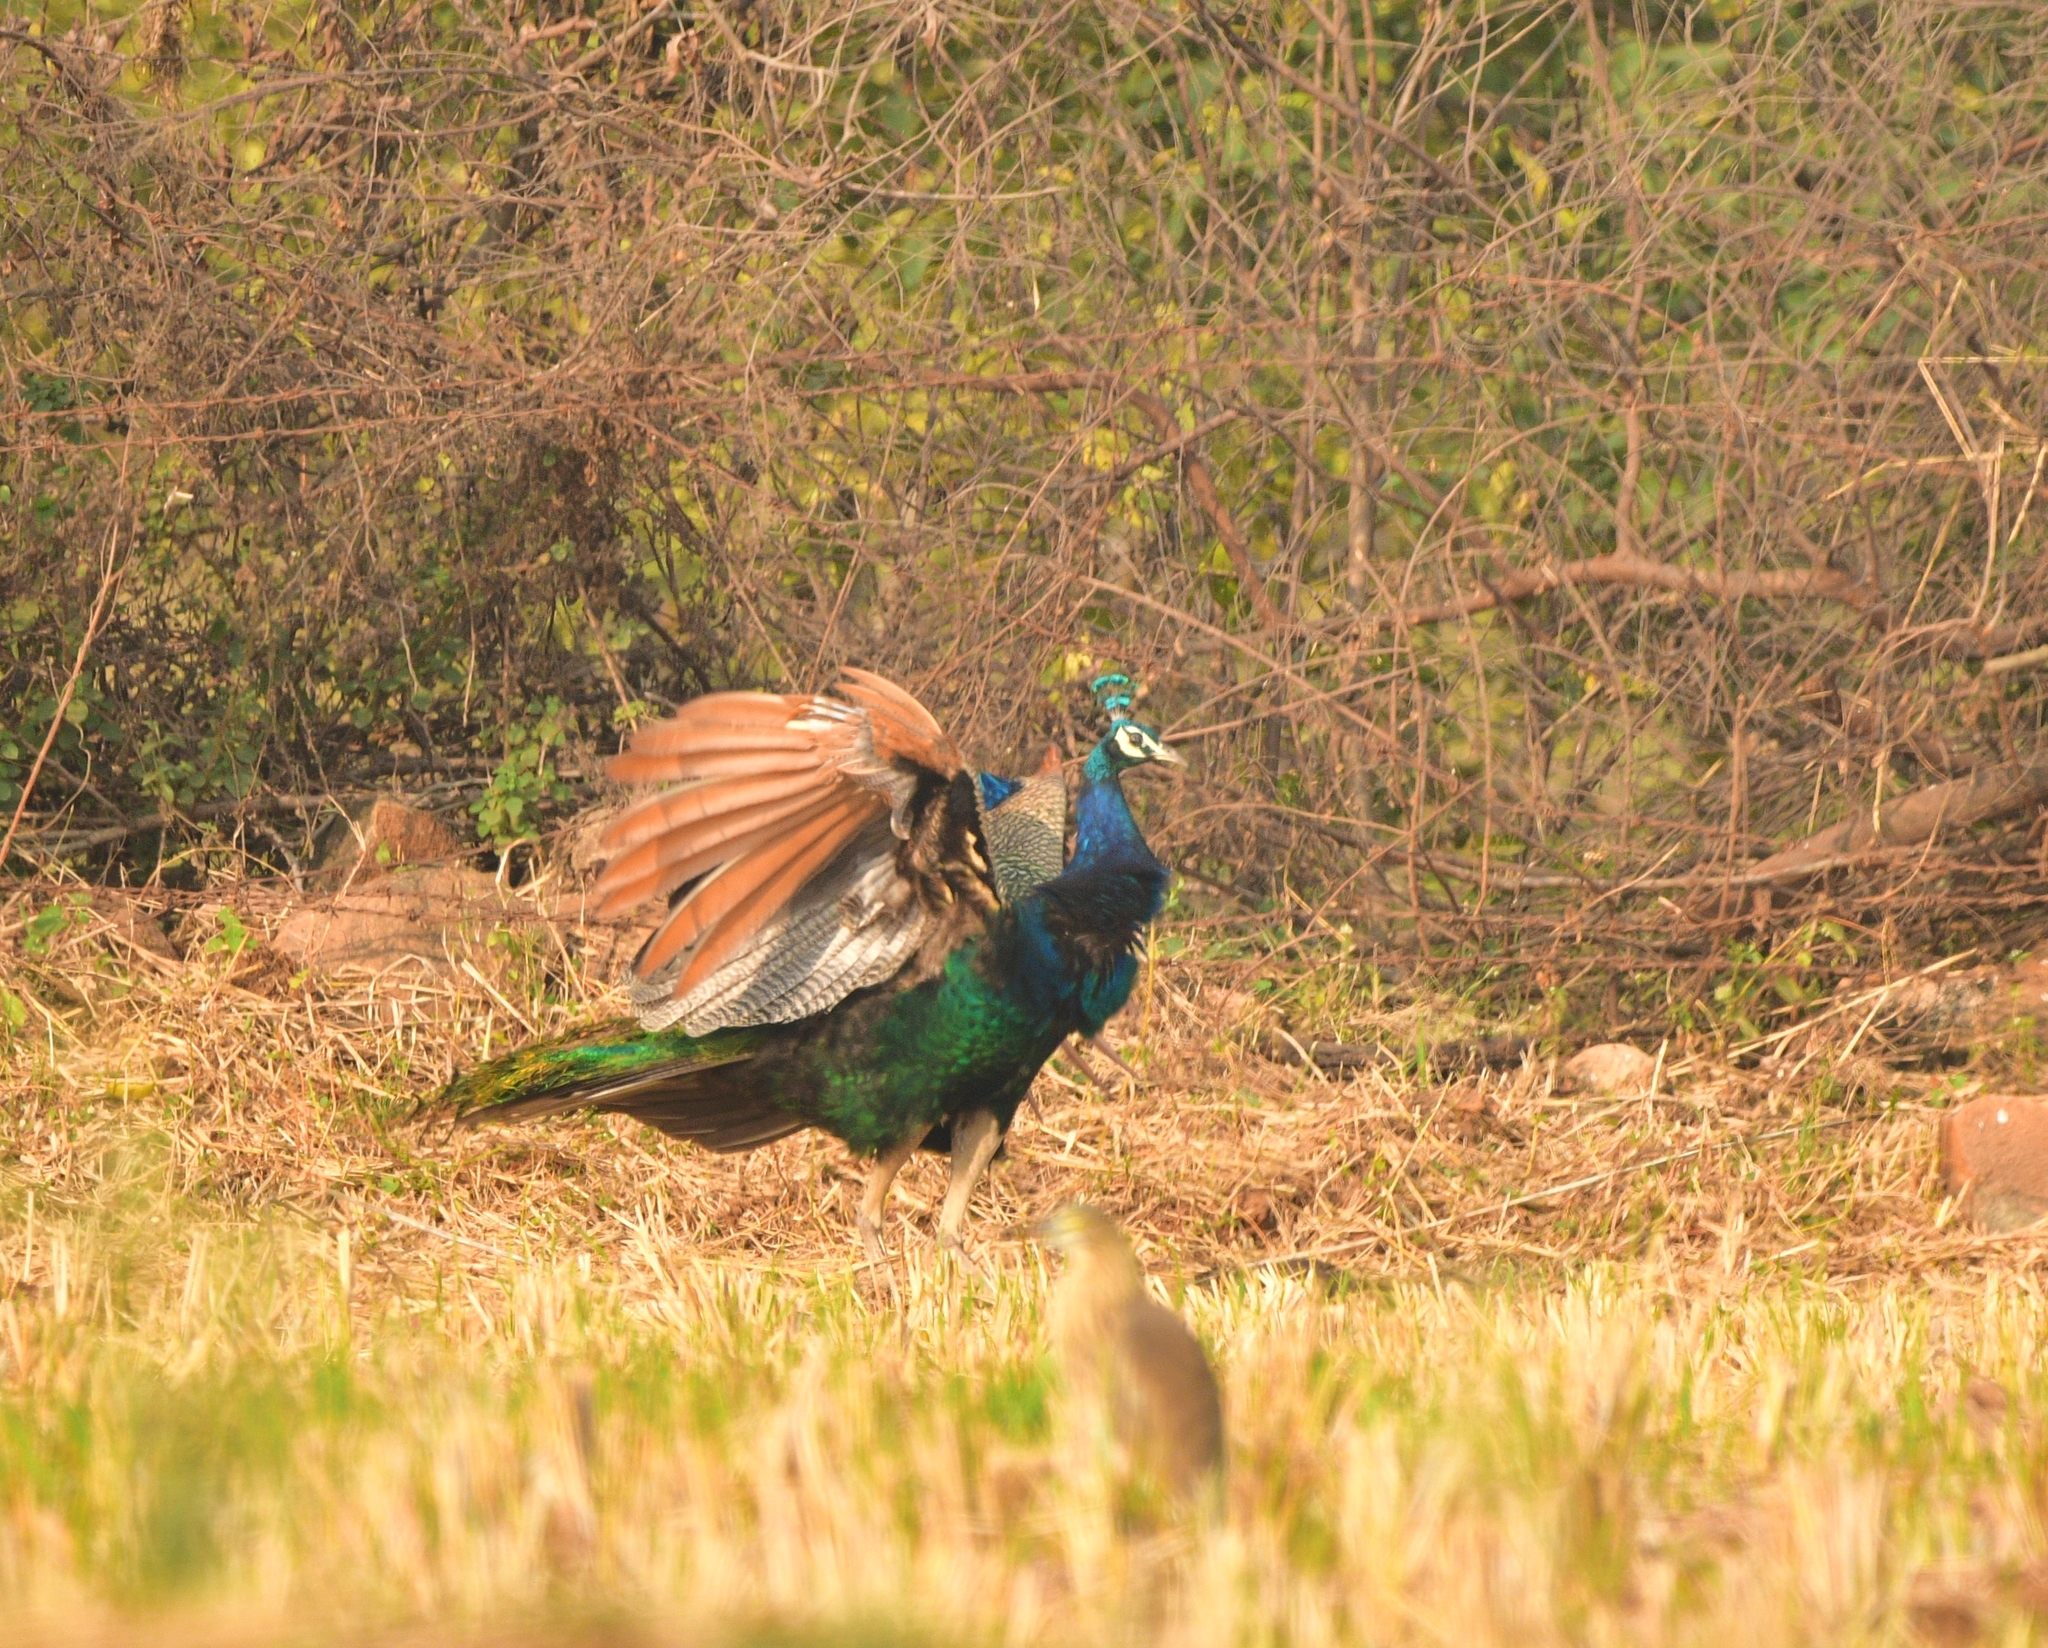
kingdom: Animalia
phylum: Chordata
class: Aves
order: Galliformes
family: Phasianidae
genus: Pavo
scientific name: Pavo cristatus
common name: Indian peafowl
